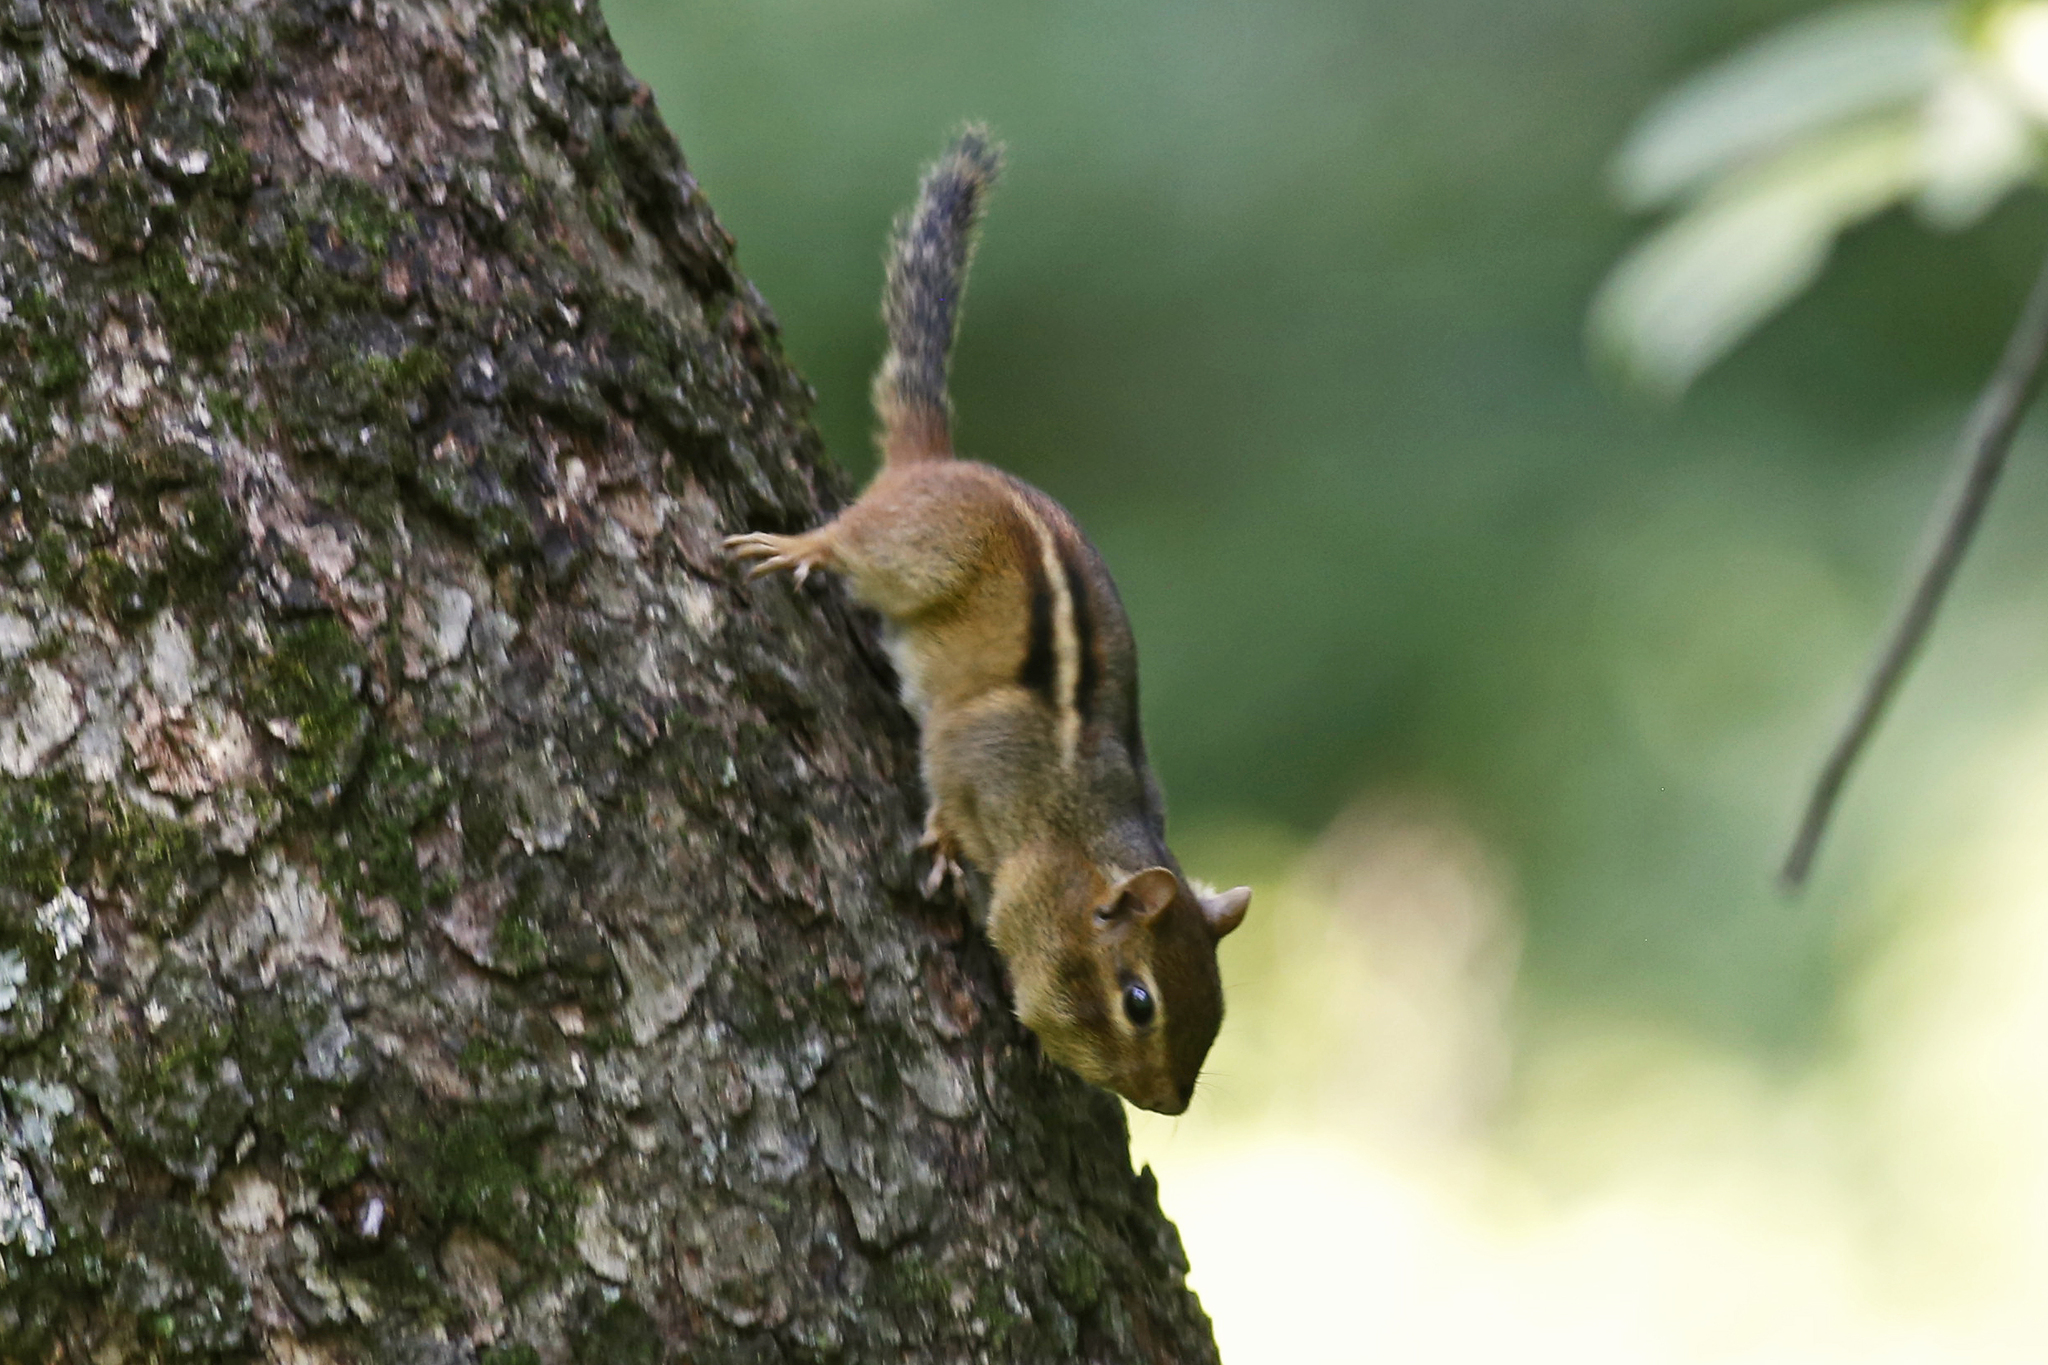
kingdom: Animalia
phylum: Chordata
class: Mammalia
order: Rodentia
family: Sciuridae
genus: Tamias
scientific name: Tamias striatus
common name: Eastern chipmunk
